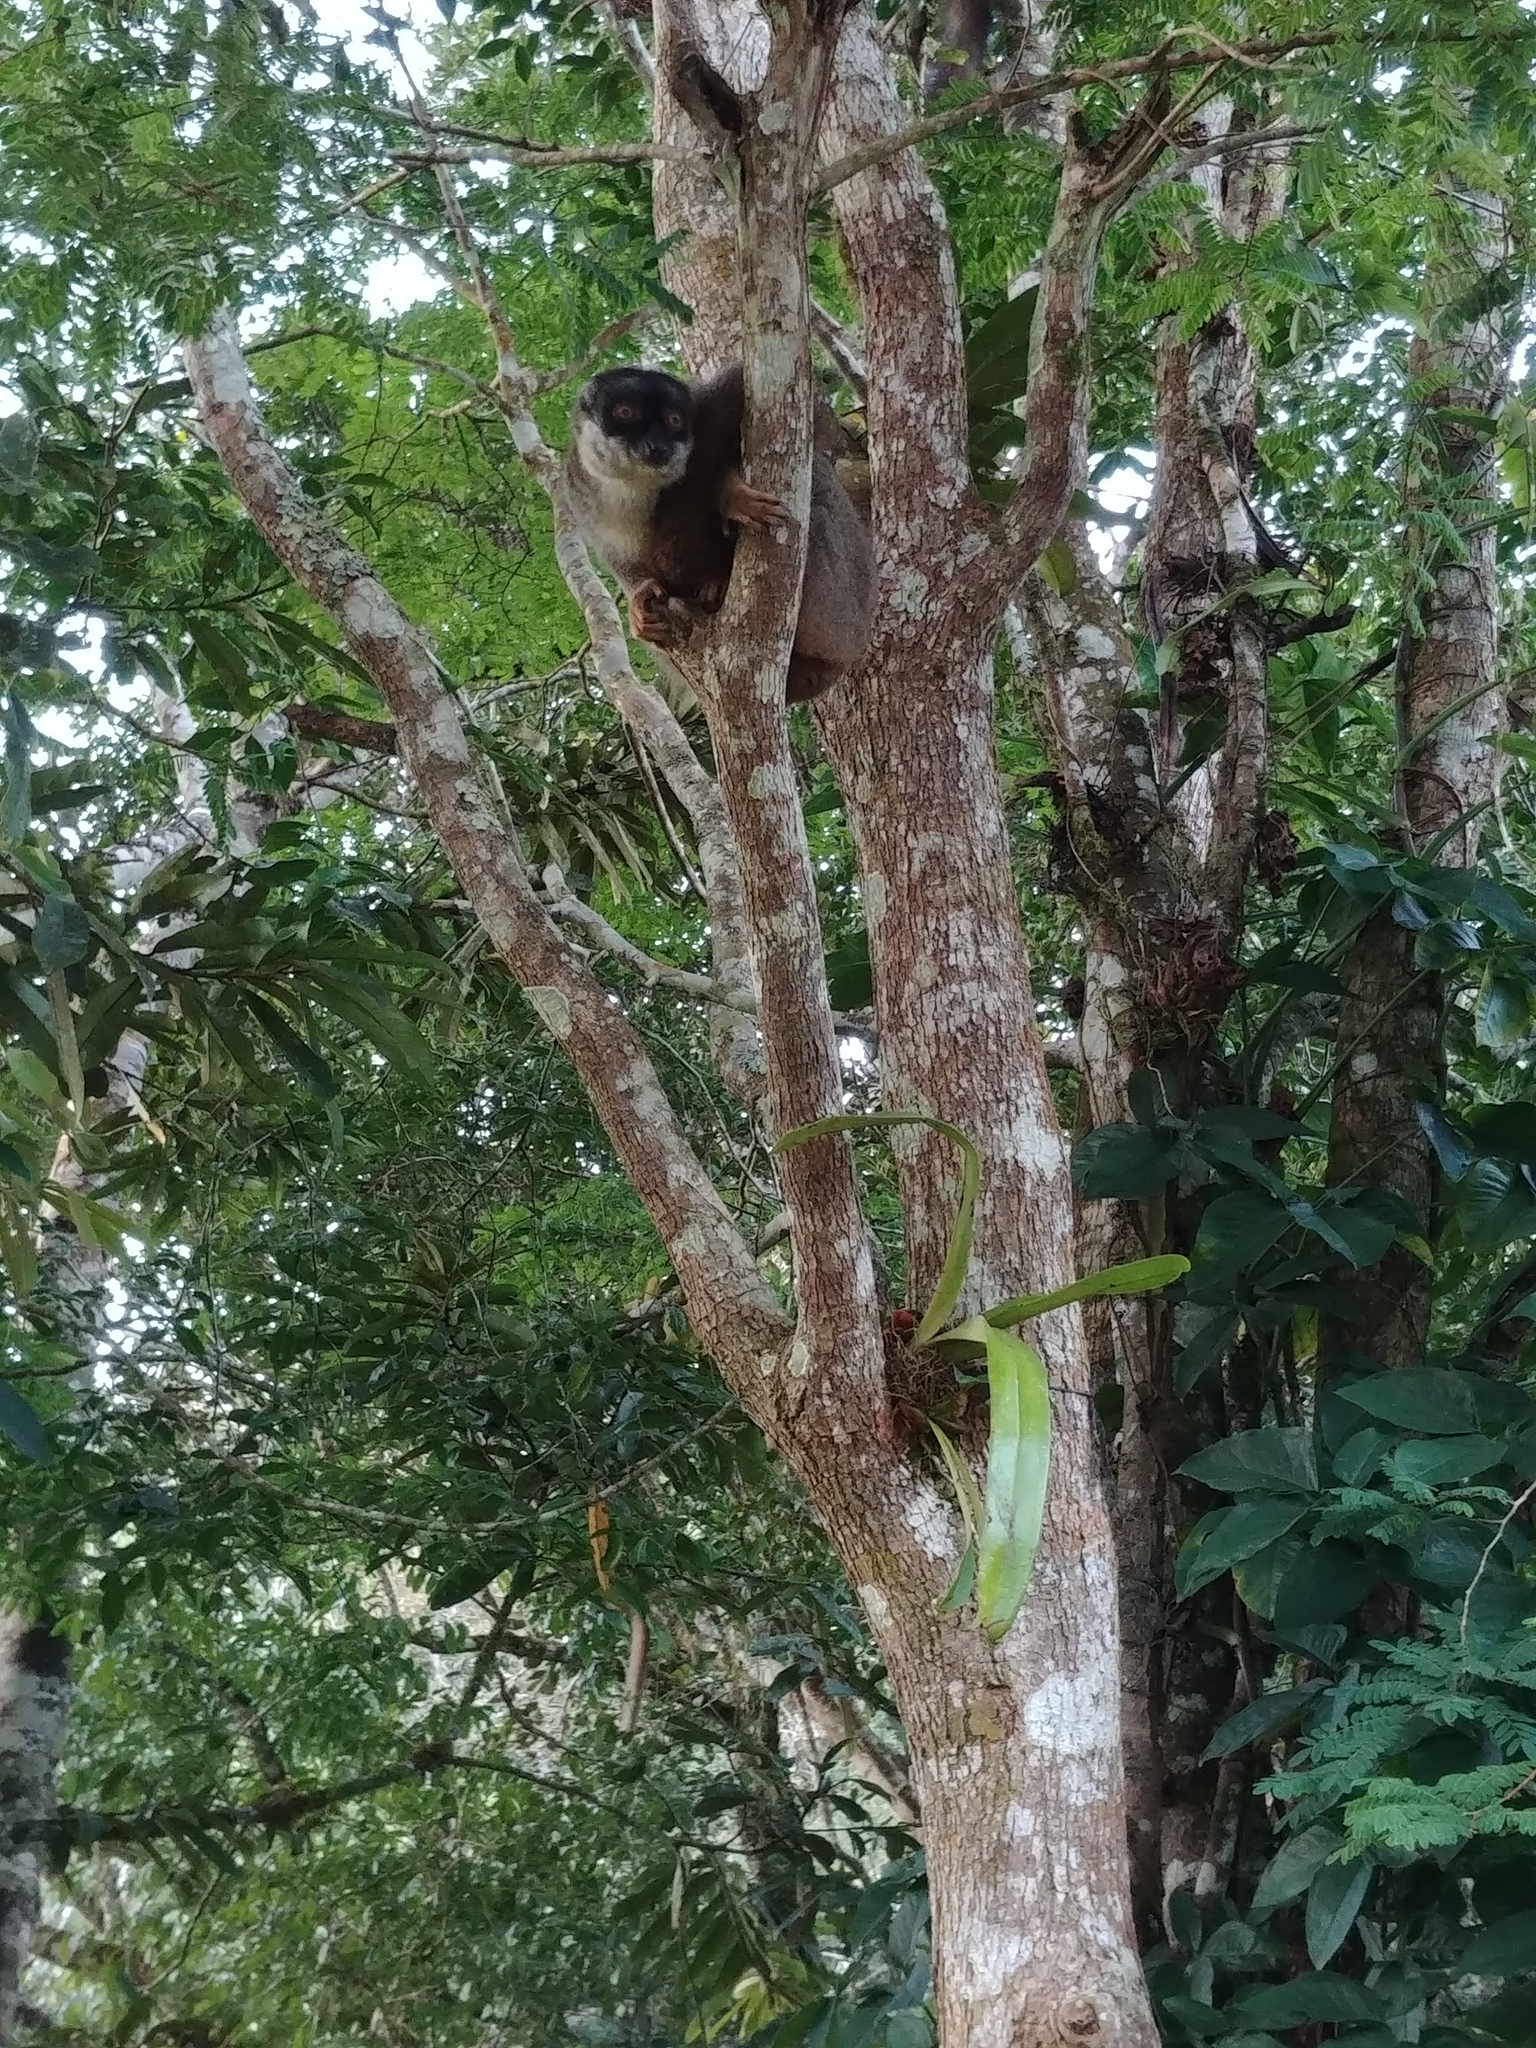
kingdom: Animalia
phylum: Chordata
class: Mammalia
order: Primates
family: Lemuridae
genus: Eulemur
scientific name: Eulemur fulvus
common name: Brown lemur
